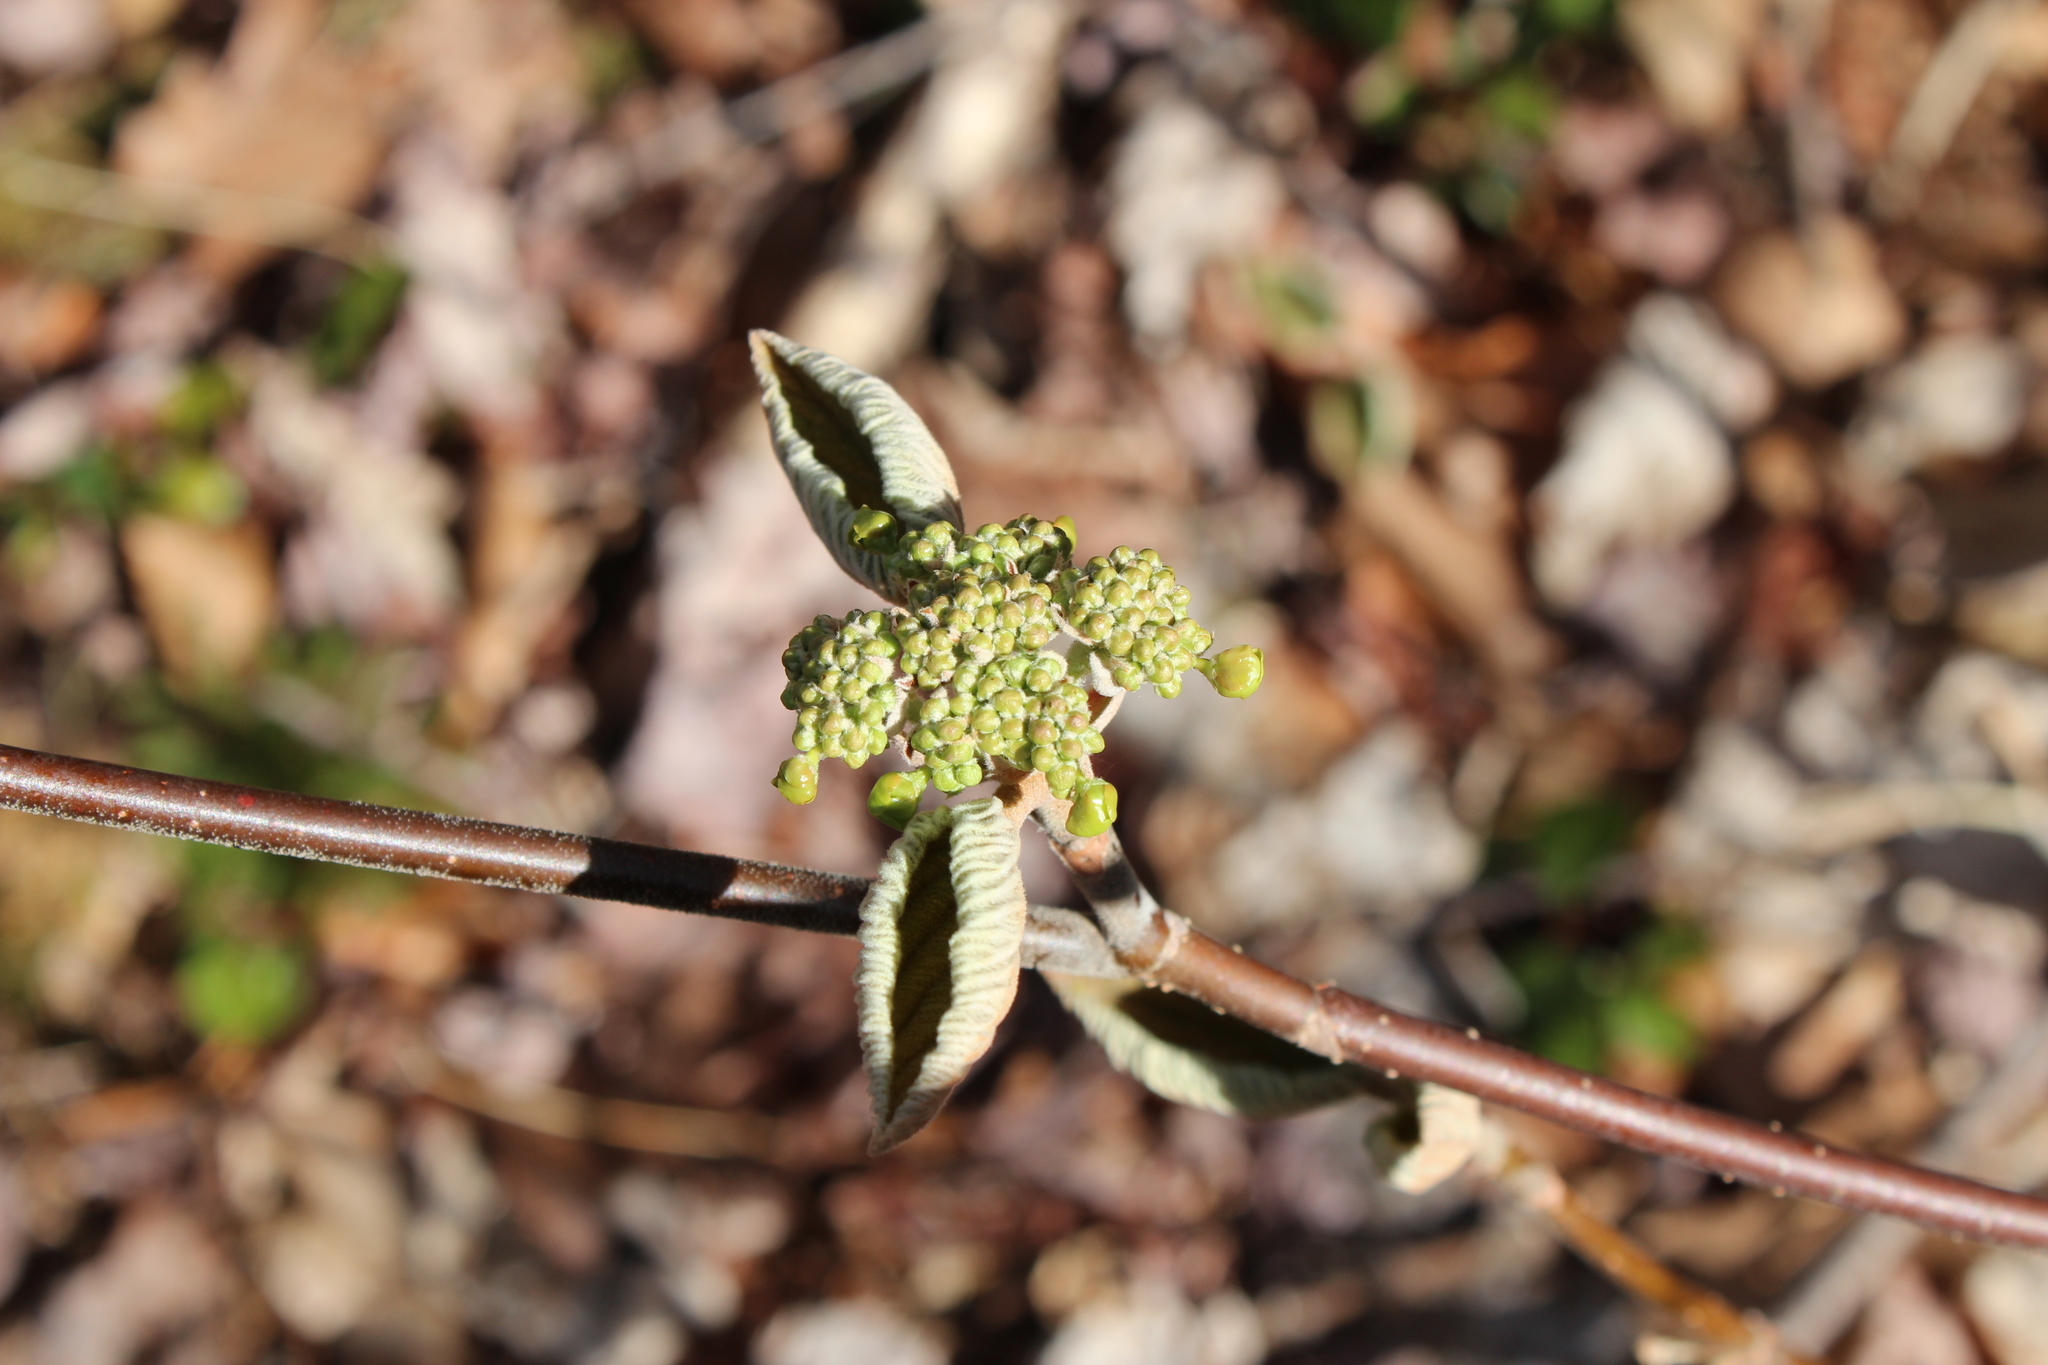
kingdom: Plantae
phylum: Tracheophyta
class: Magnoliopsida
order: Dipsacales
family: Viburnaceae
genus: Viburnum
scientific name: Viburnum lantanoides
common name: Hobblebush
